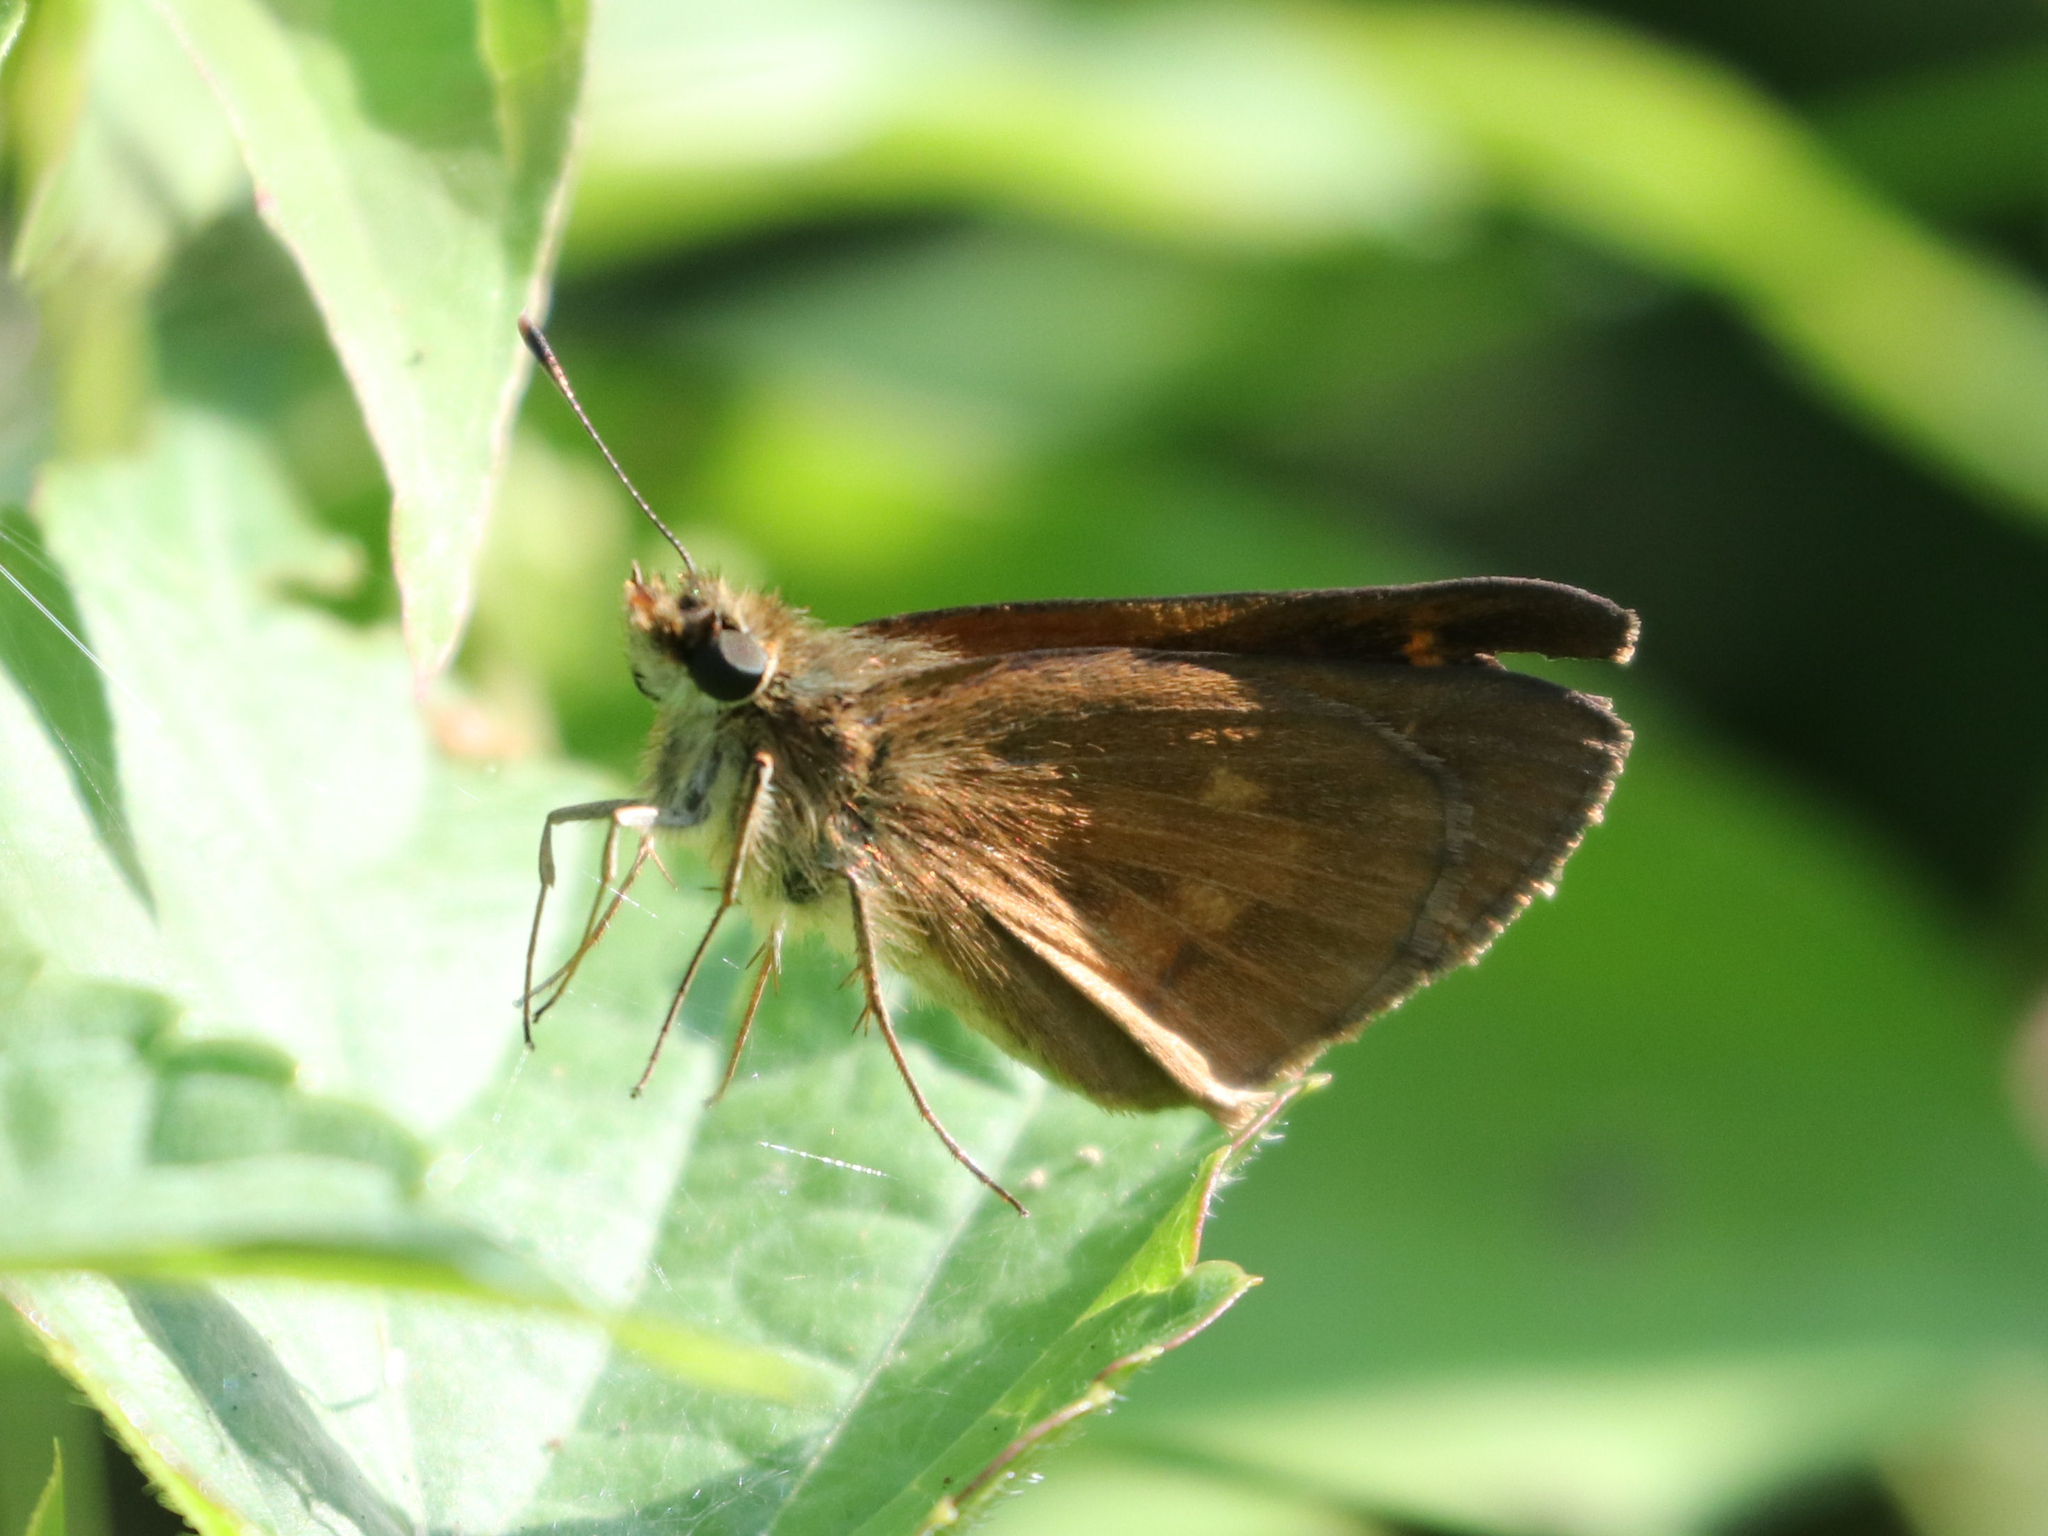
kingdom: Animalia
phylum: Arthropoda
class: Insecta
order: Lepidoptera
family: Hesperiidae
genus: Poanes
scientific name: Poanes viator
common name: Broad-winged skipper
